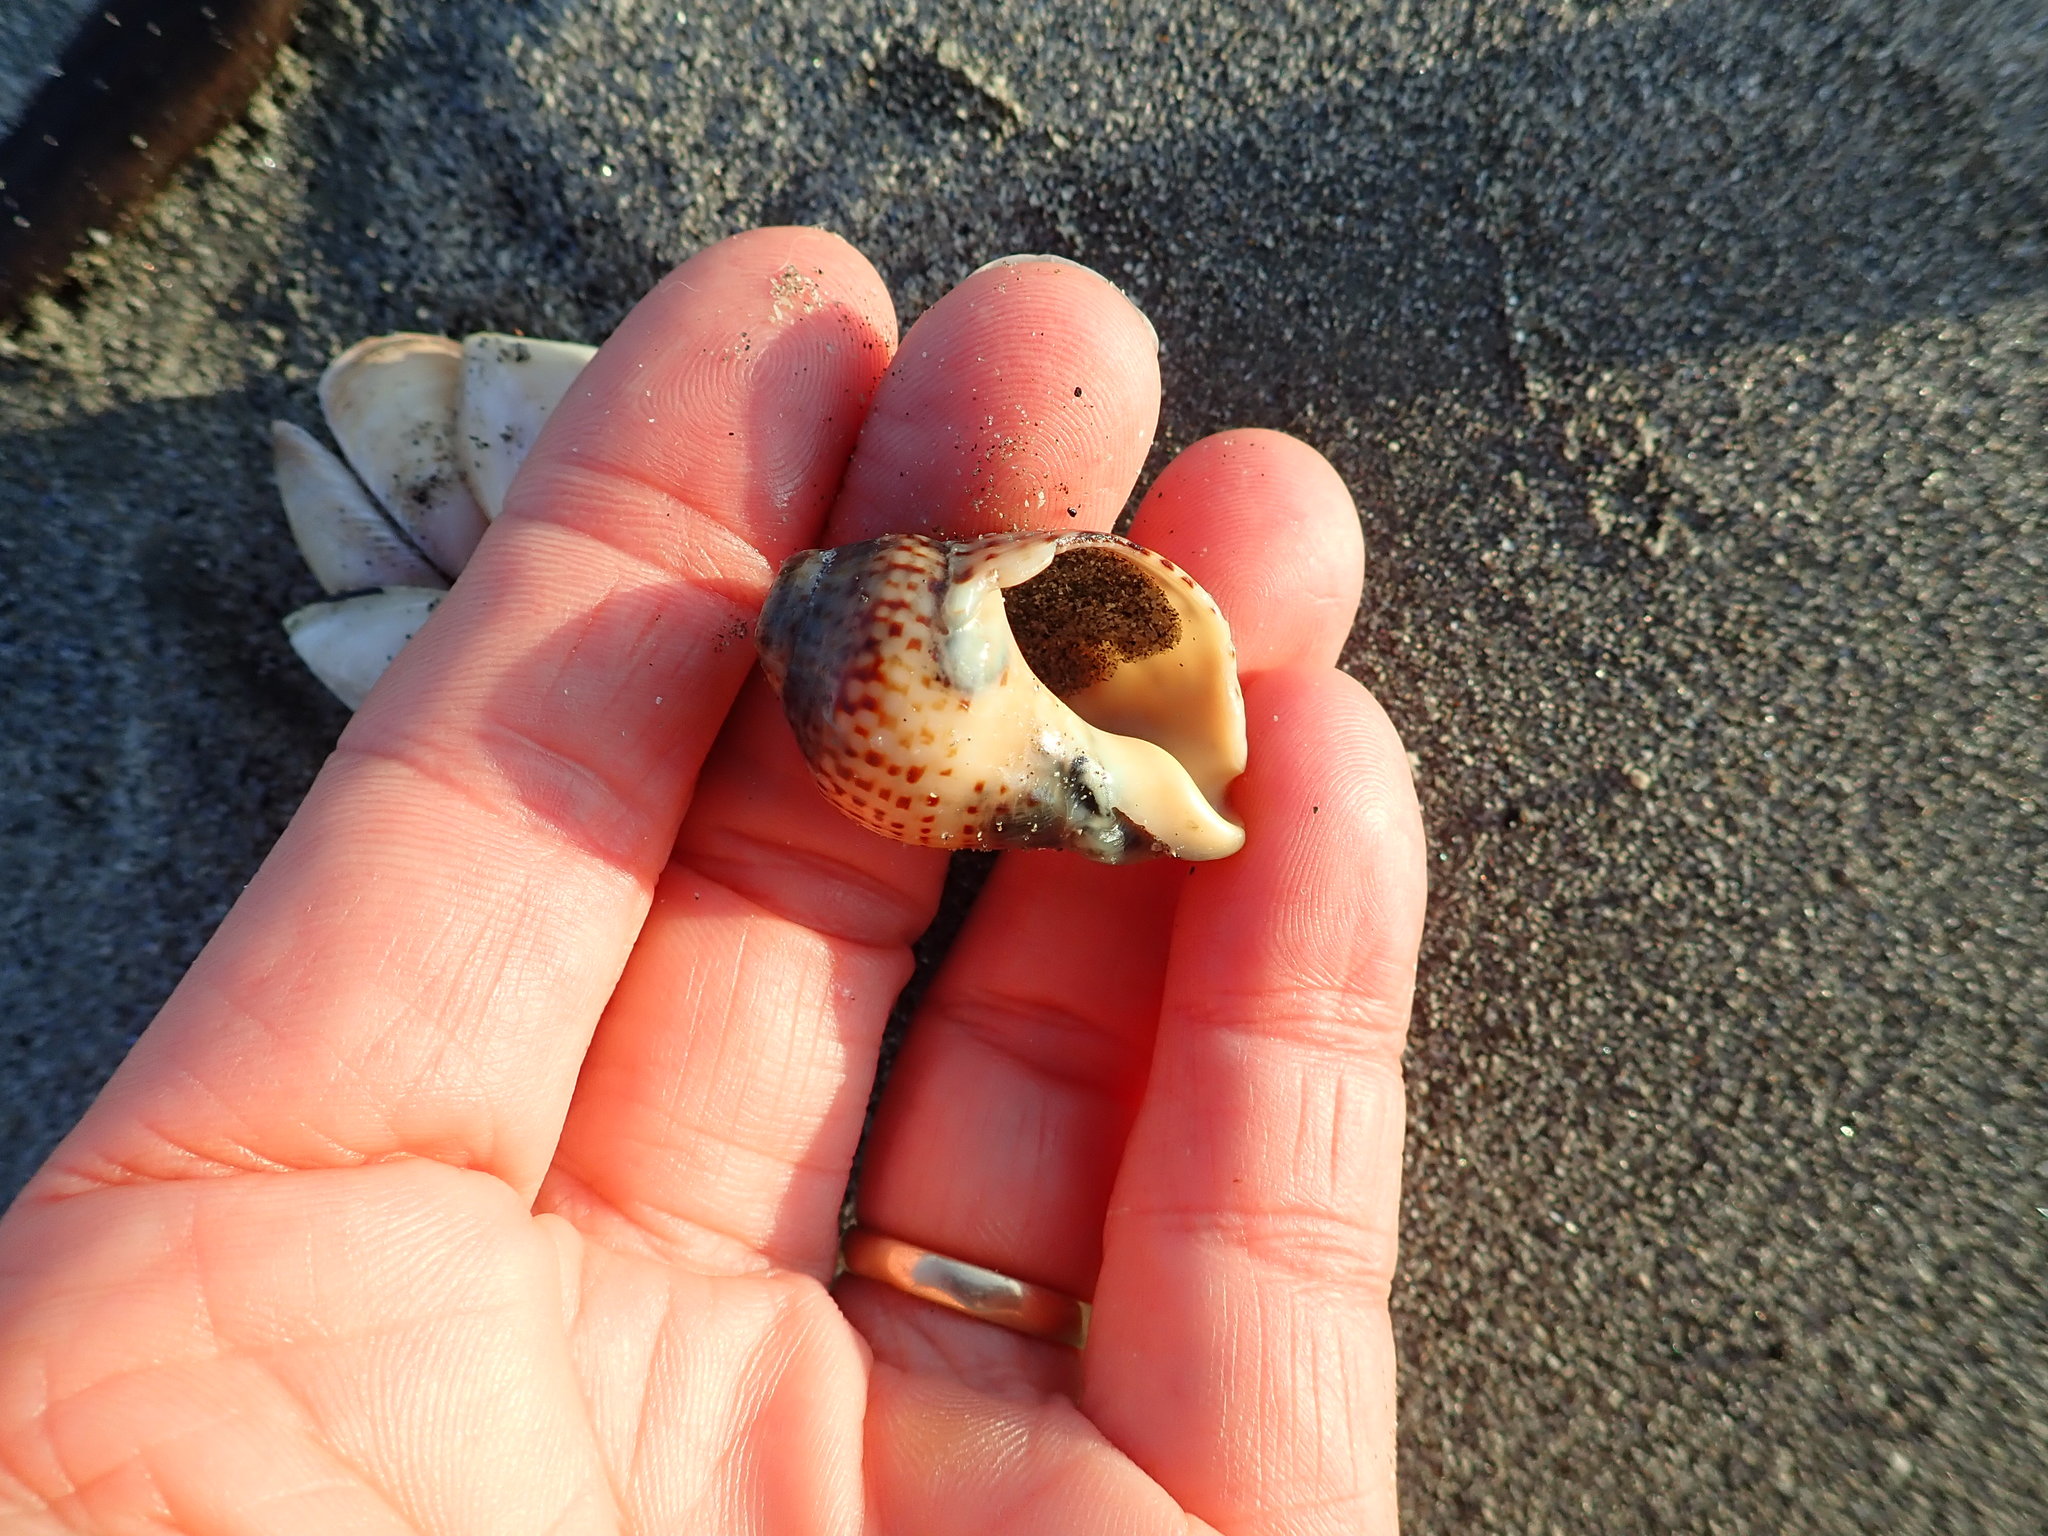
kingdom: Animalia
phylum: Mollusca
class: Gastropoda
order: Neogastropoda
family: Cominellidae
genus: Cominella
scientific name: Cominella adspersa
